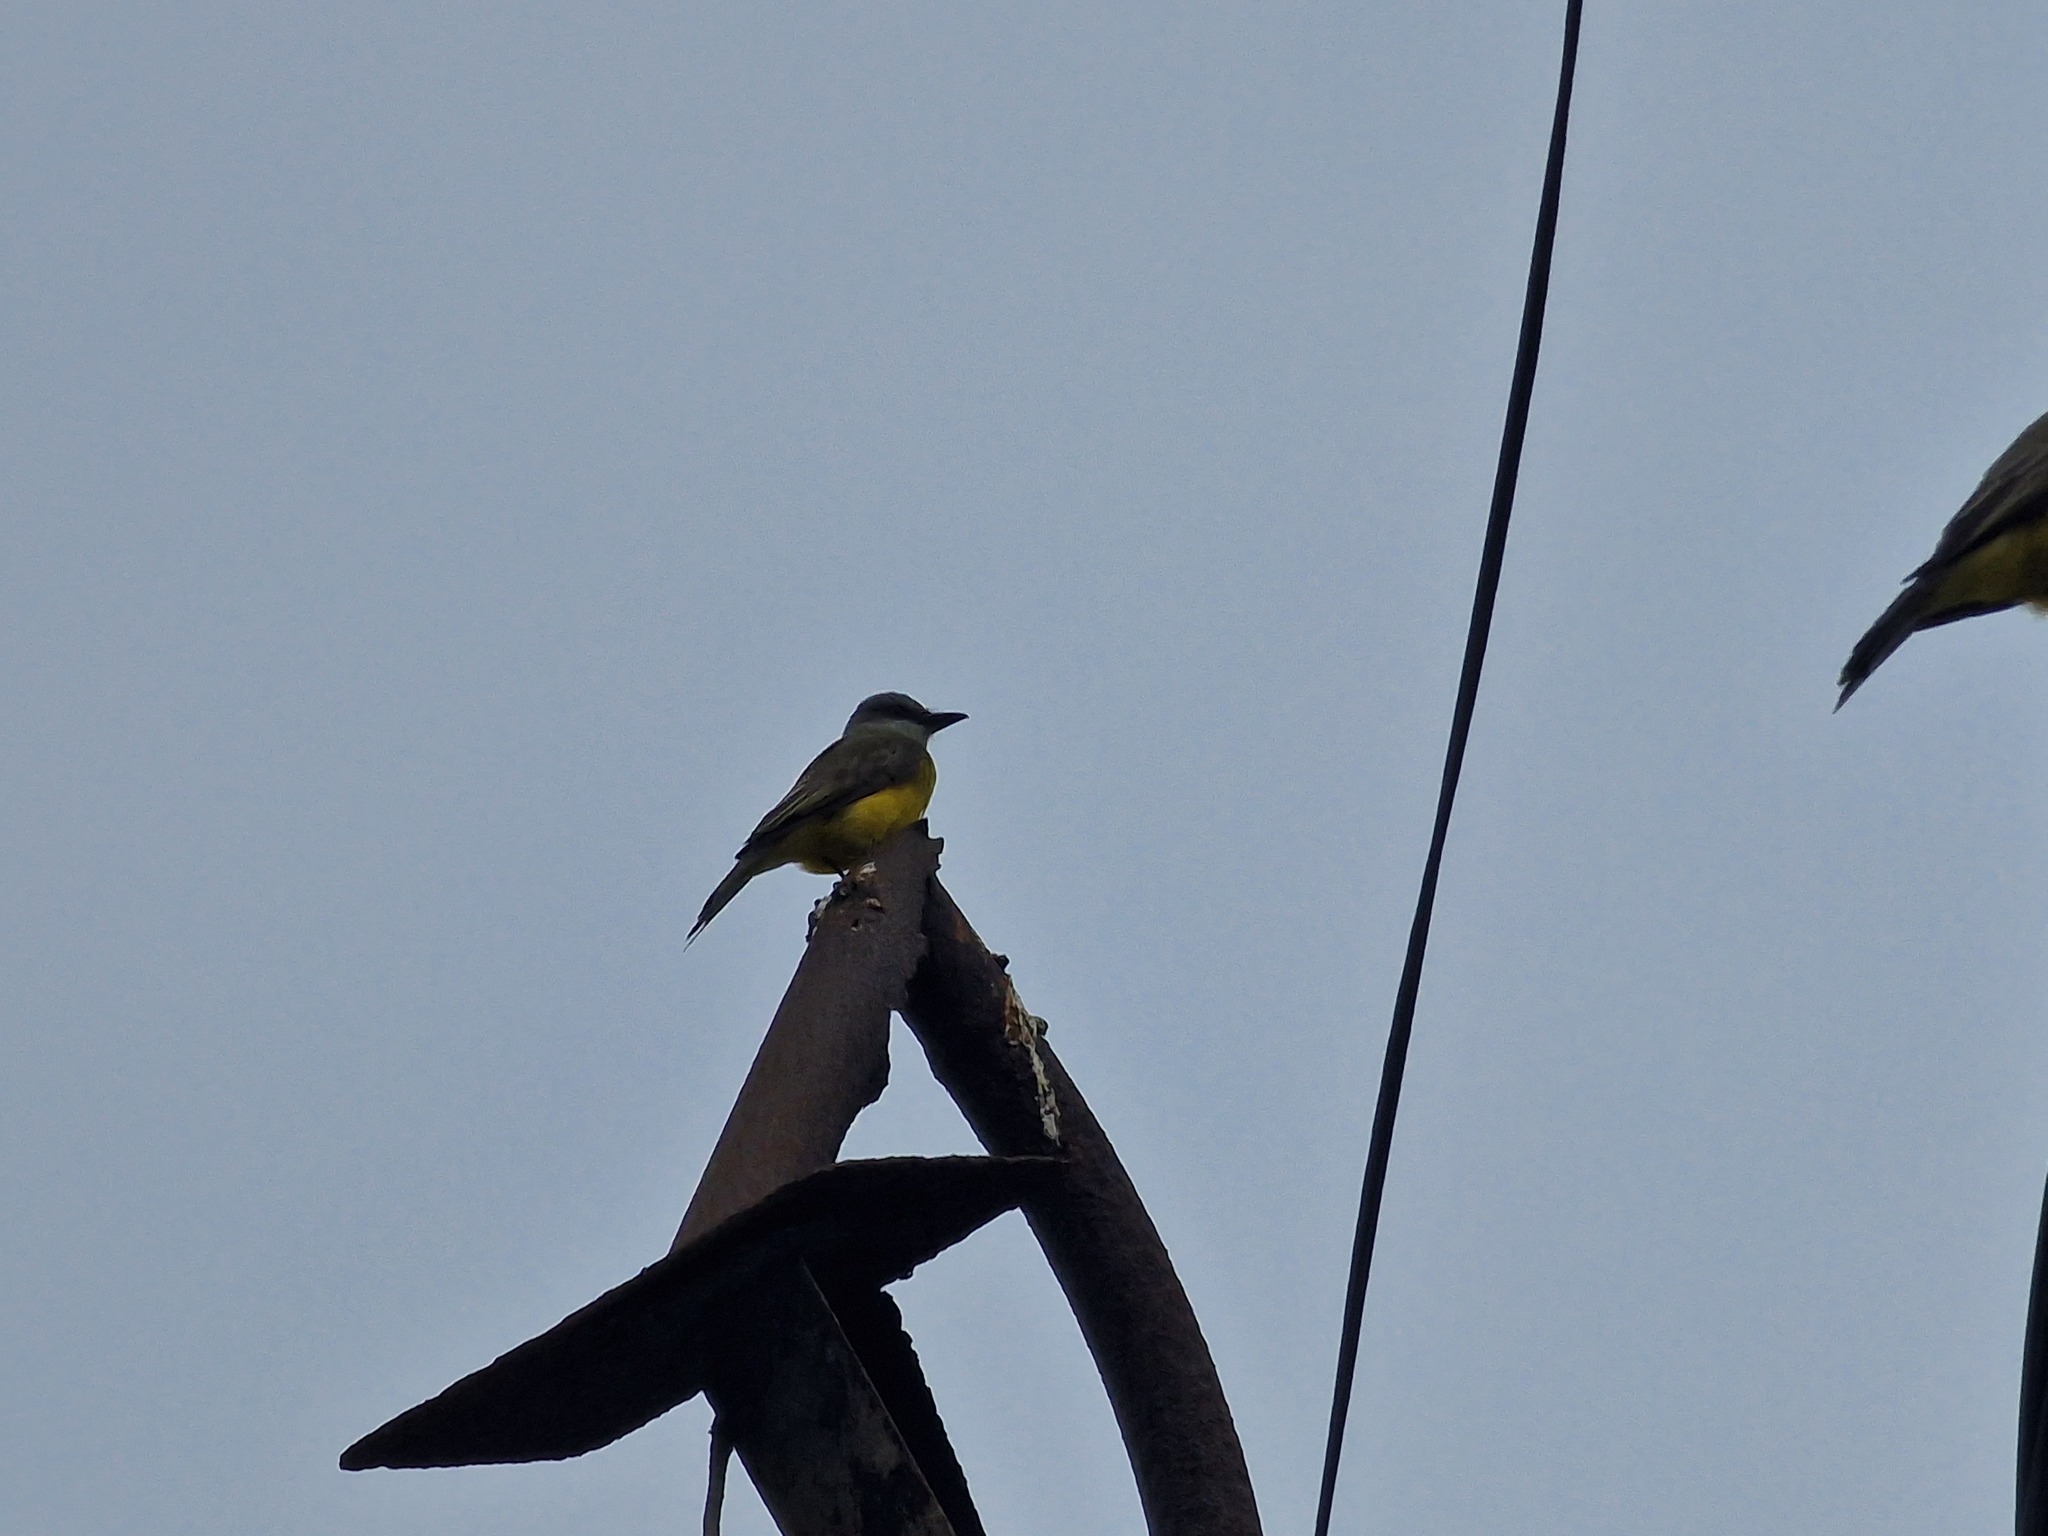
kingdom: Animalia
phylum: Chordata
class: Aves
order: Passeriformes
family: Tyrannidae
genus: Tyrannus
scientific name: Tyrannus melancholicus
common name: Tropical kingbird
